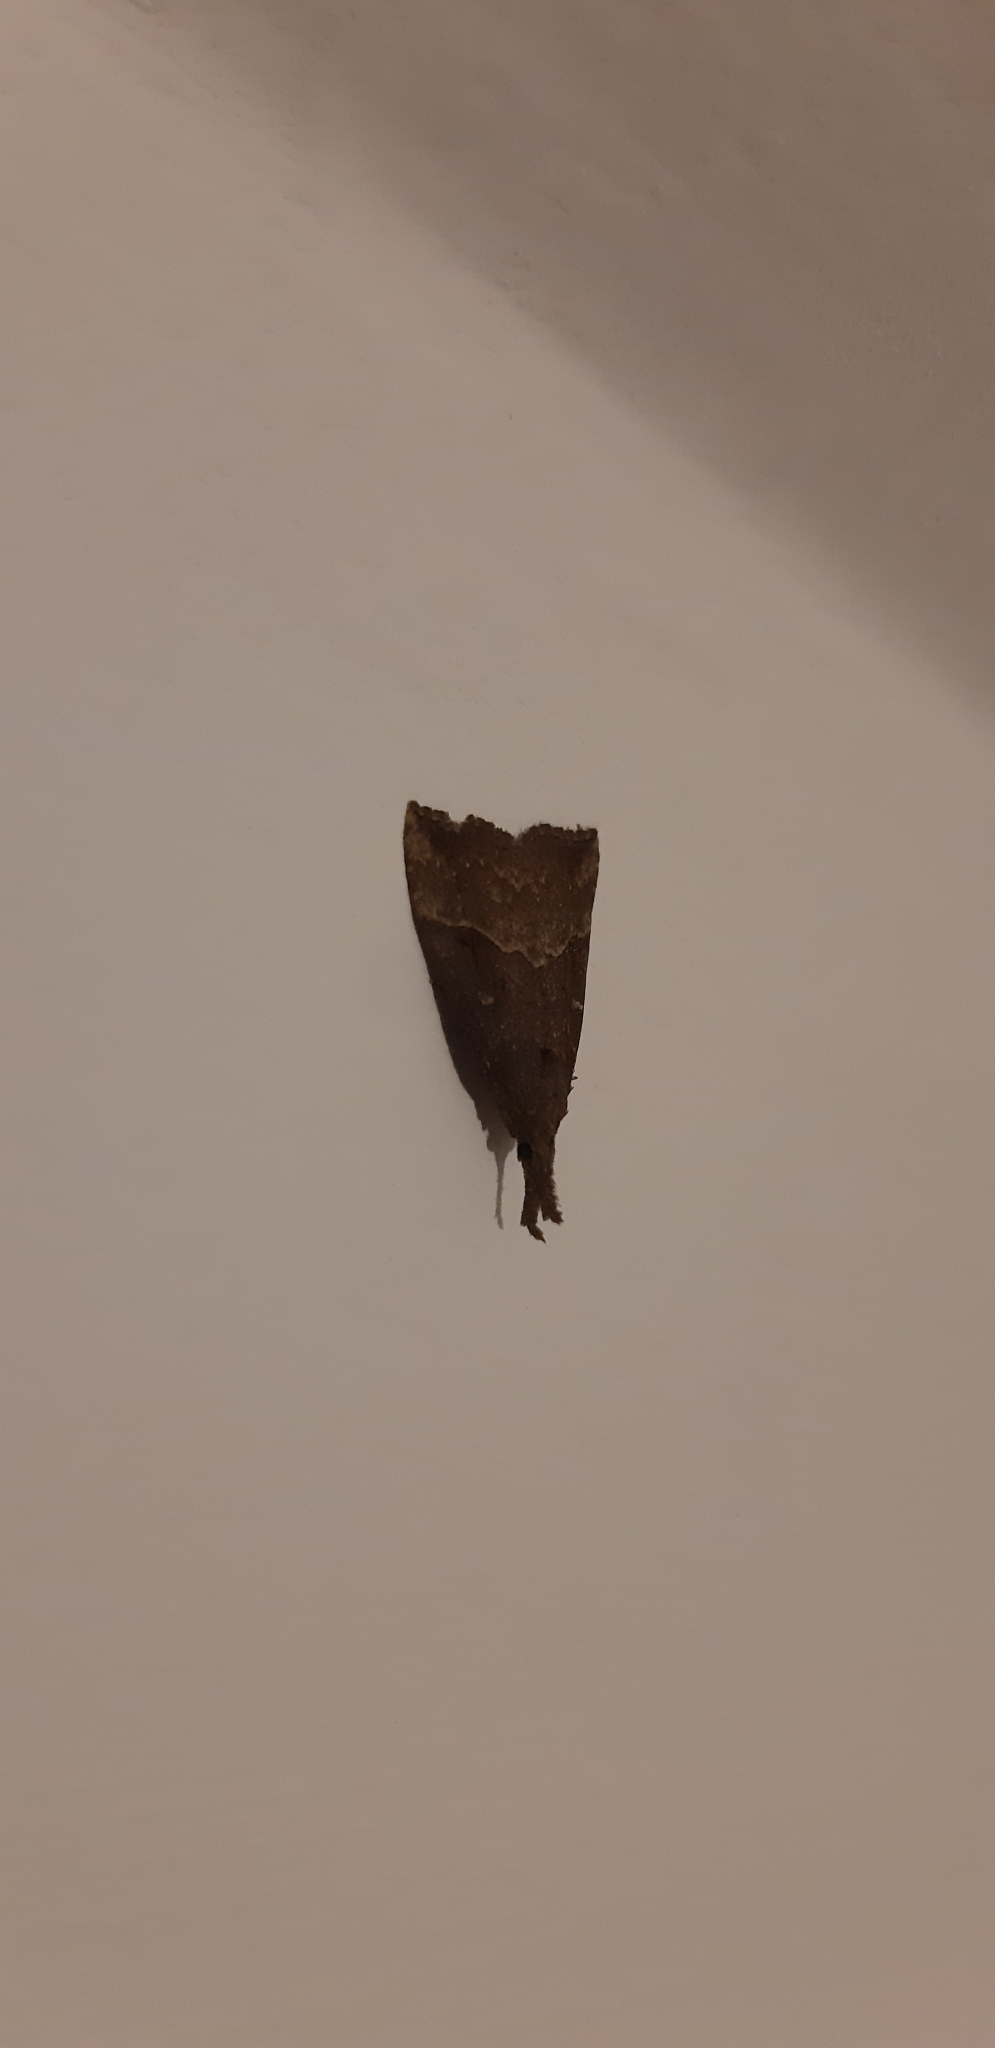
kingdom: Animalia
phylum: Arthropoda
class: Insecta
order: Lepidoptera
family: Erebidae
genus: Hypena
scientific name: Hypena rostralis
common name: Buttoned snout
